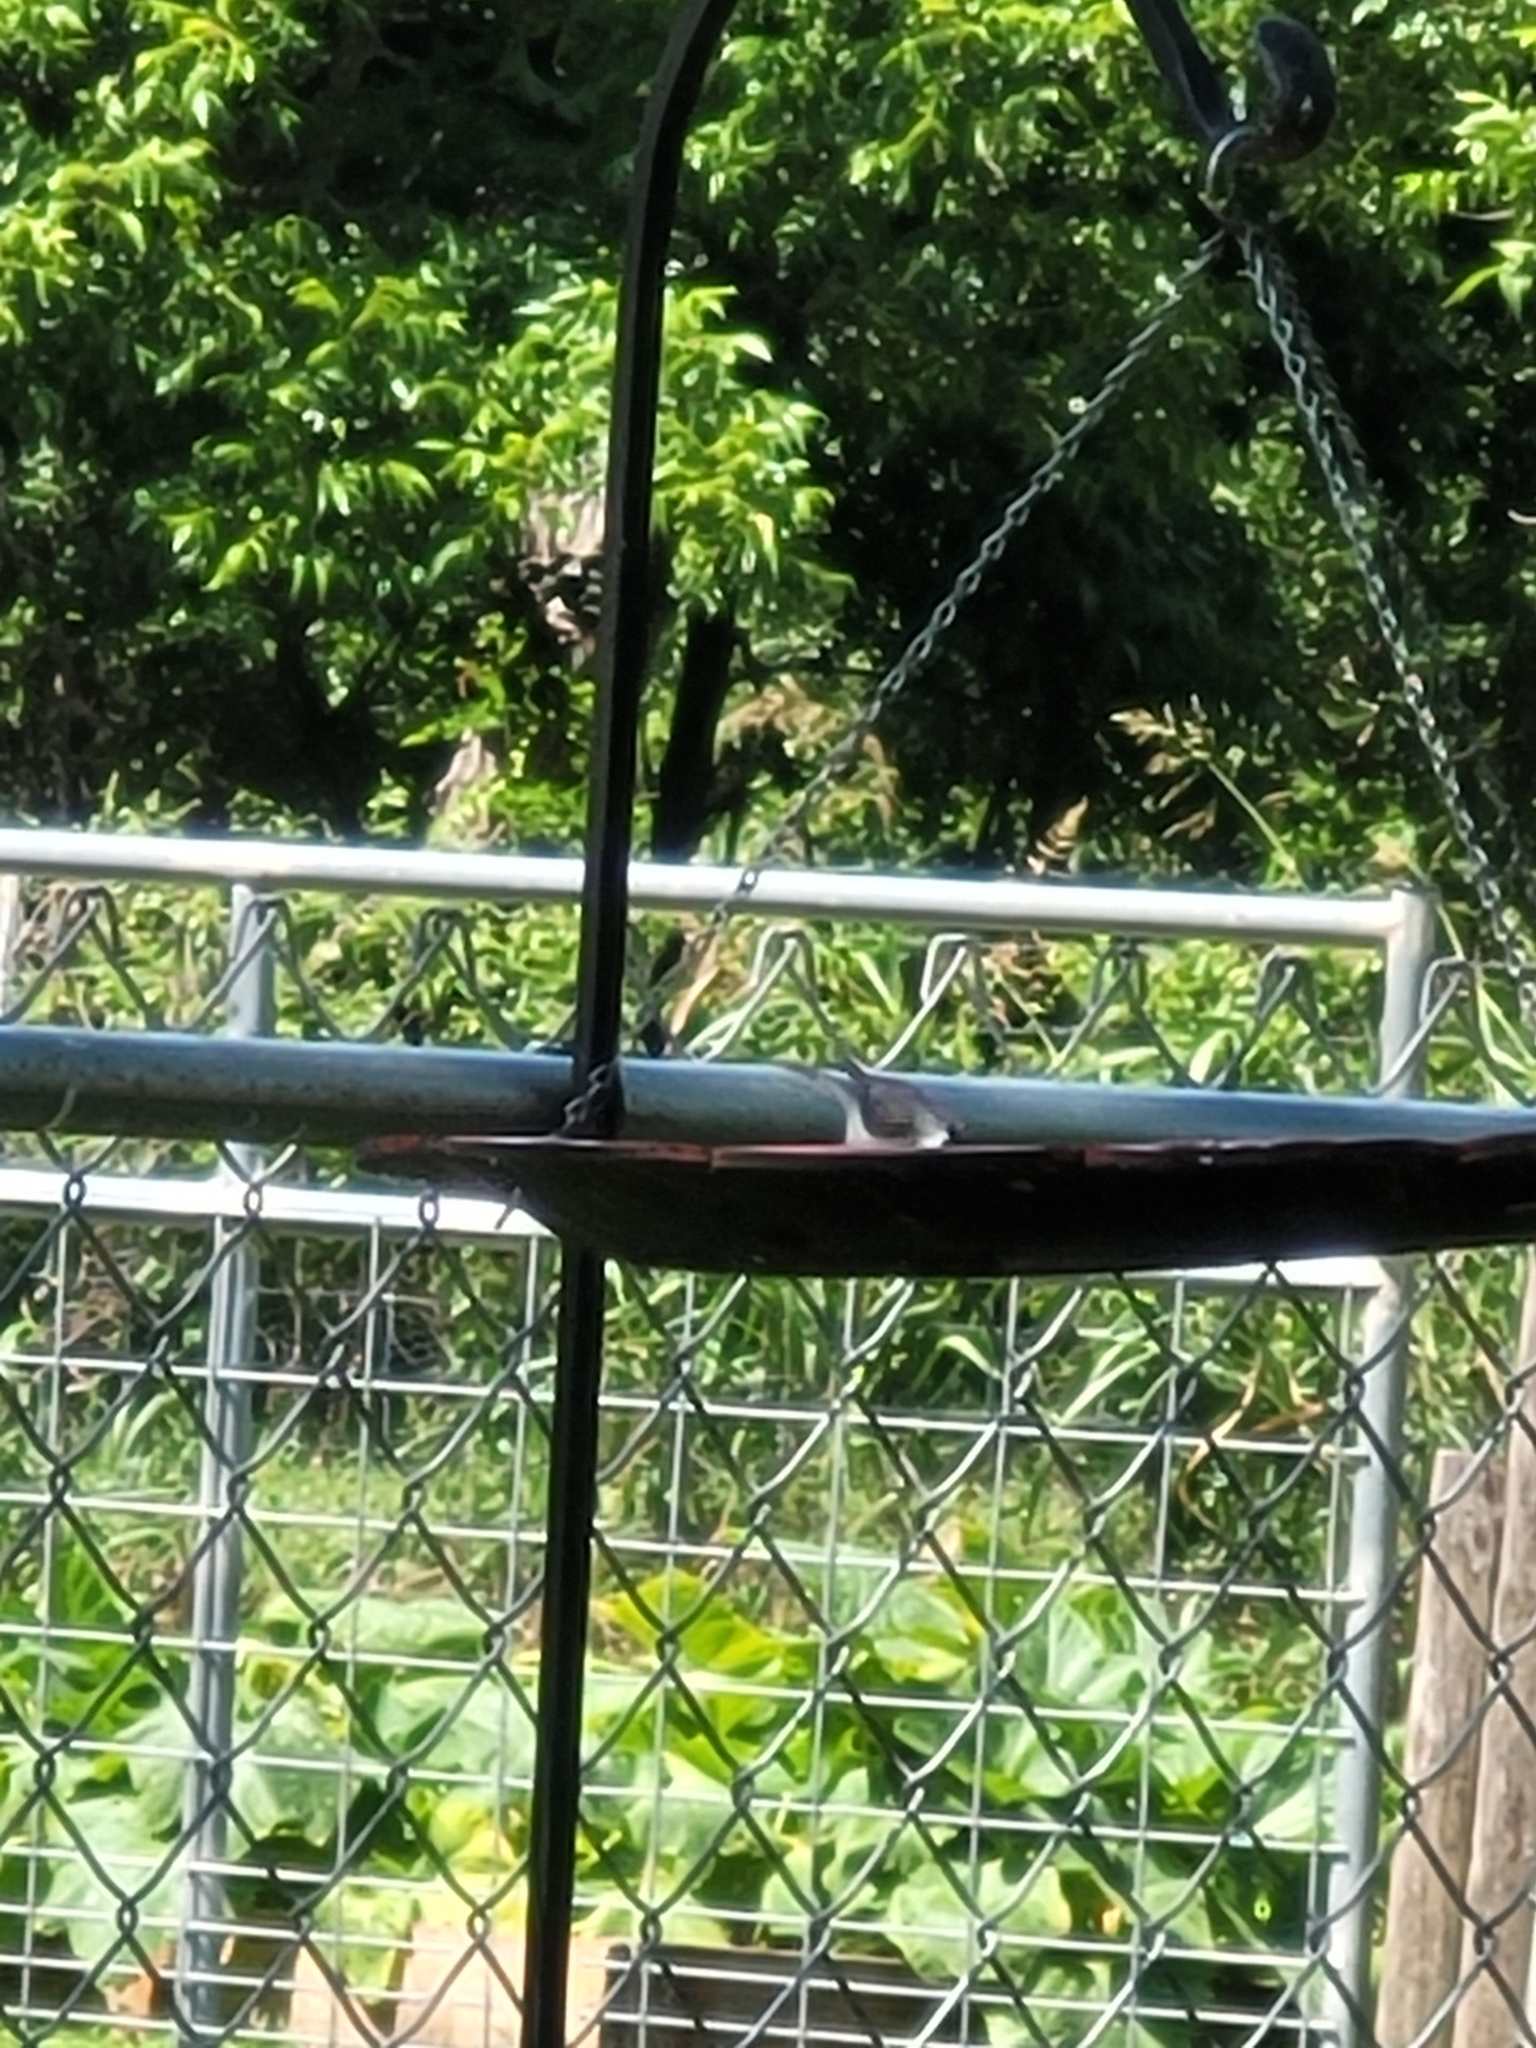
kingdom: Animalia
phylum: Chordata
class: Aves
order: Passeriformes
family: Paridae
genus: Poecile
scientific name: Poecile carolinensis
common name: Carolina chickadee
